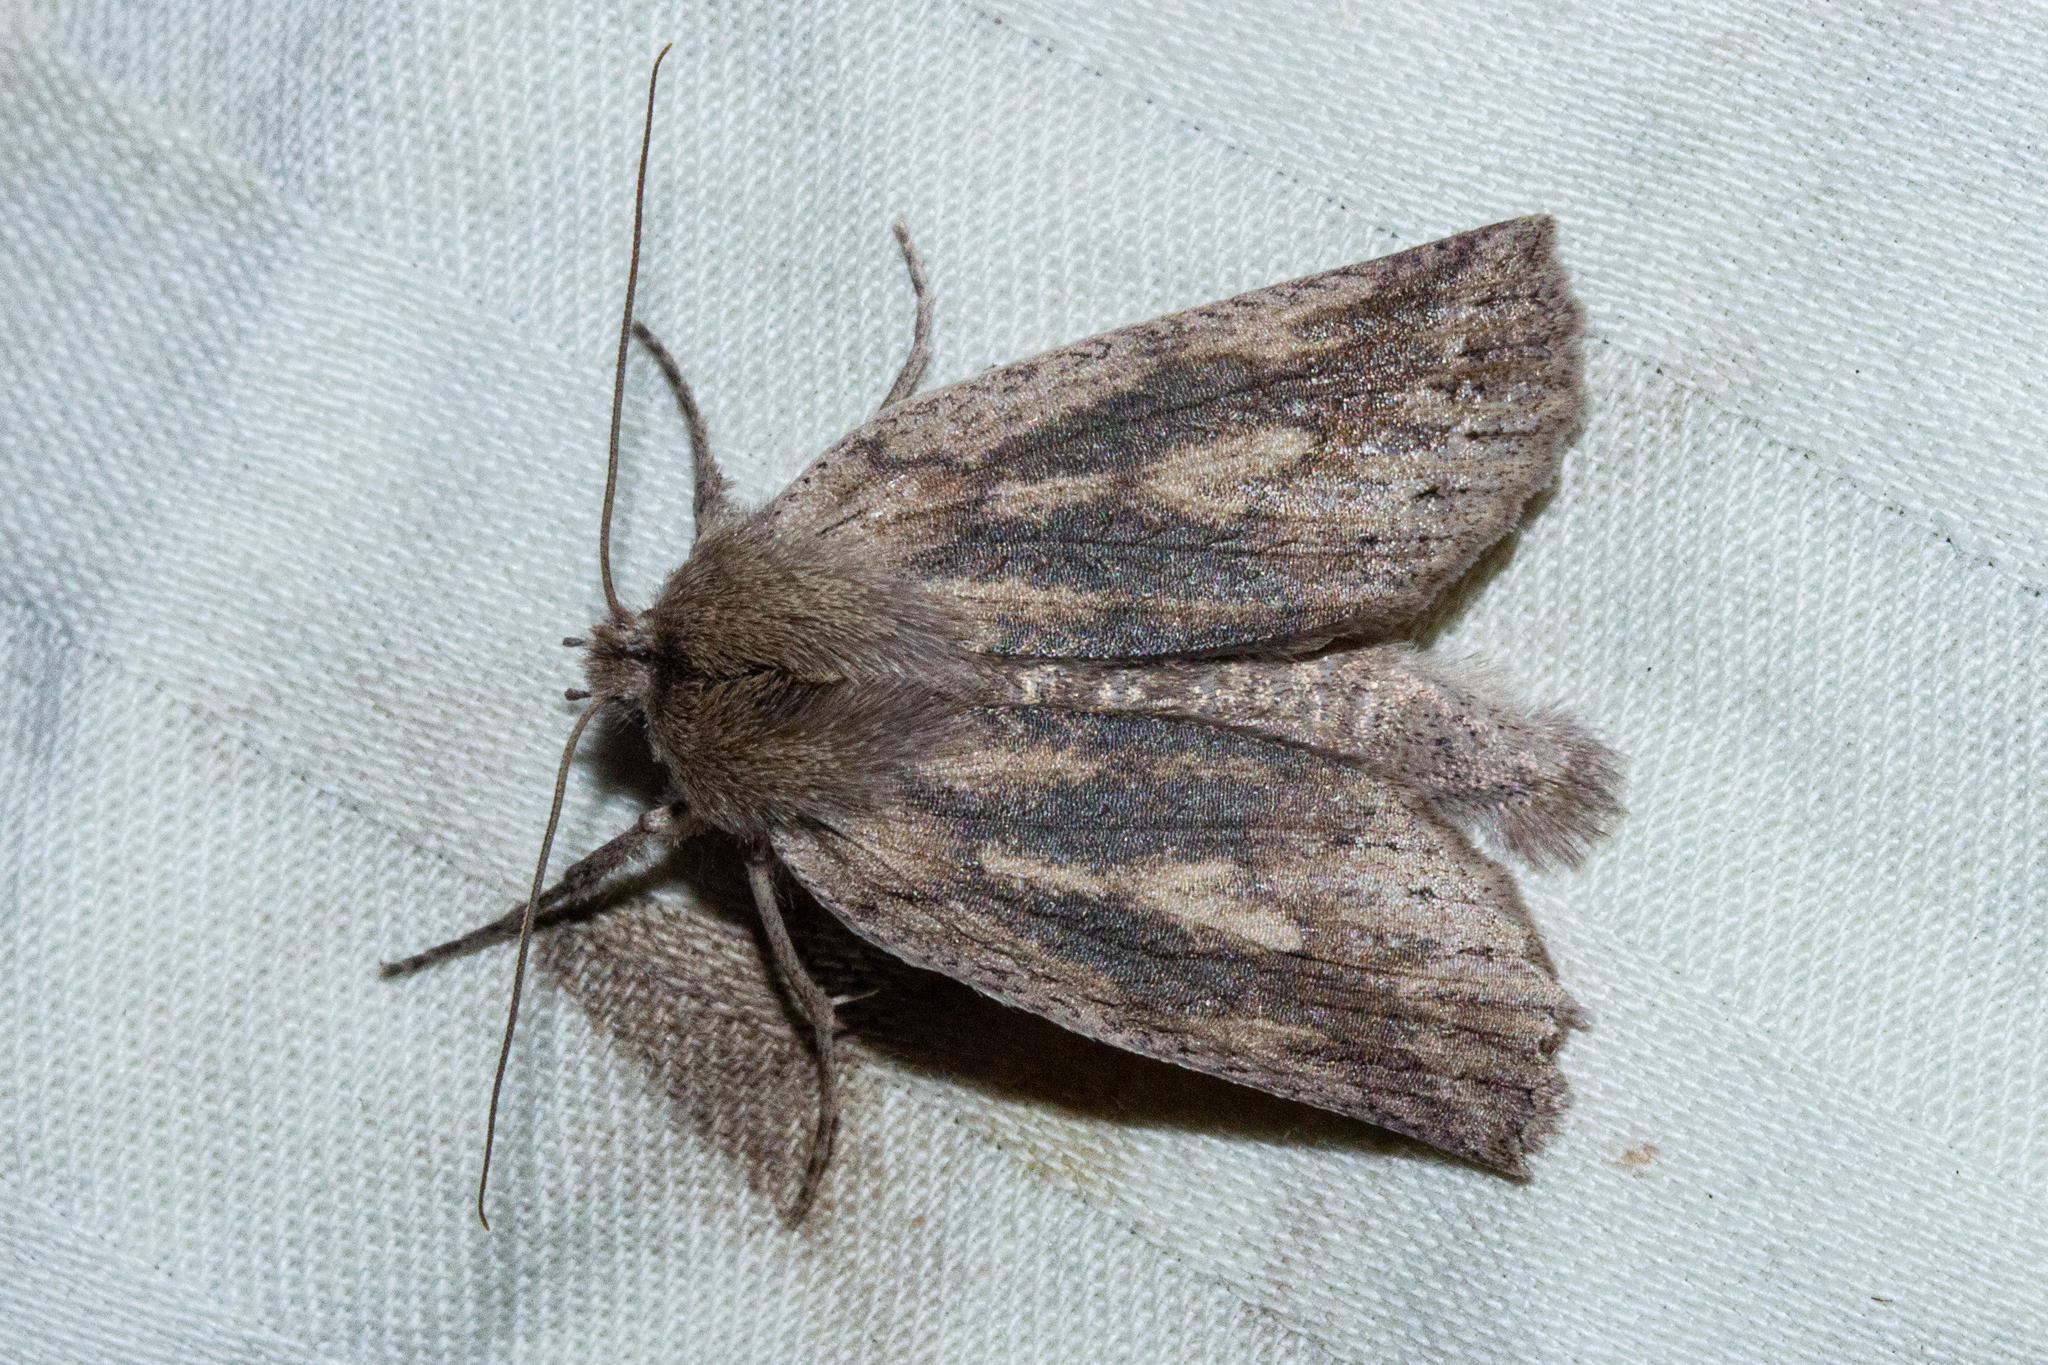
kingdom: Animalia
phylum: Arthropoda
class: Insecta
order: Lepidoptera
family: Geometridae
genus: Declana
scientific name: Declana leptomera
